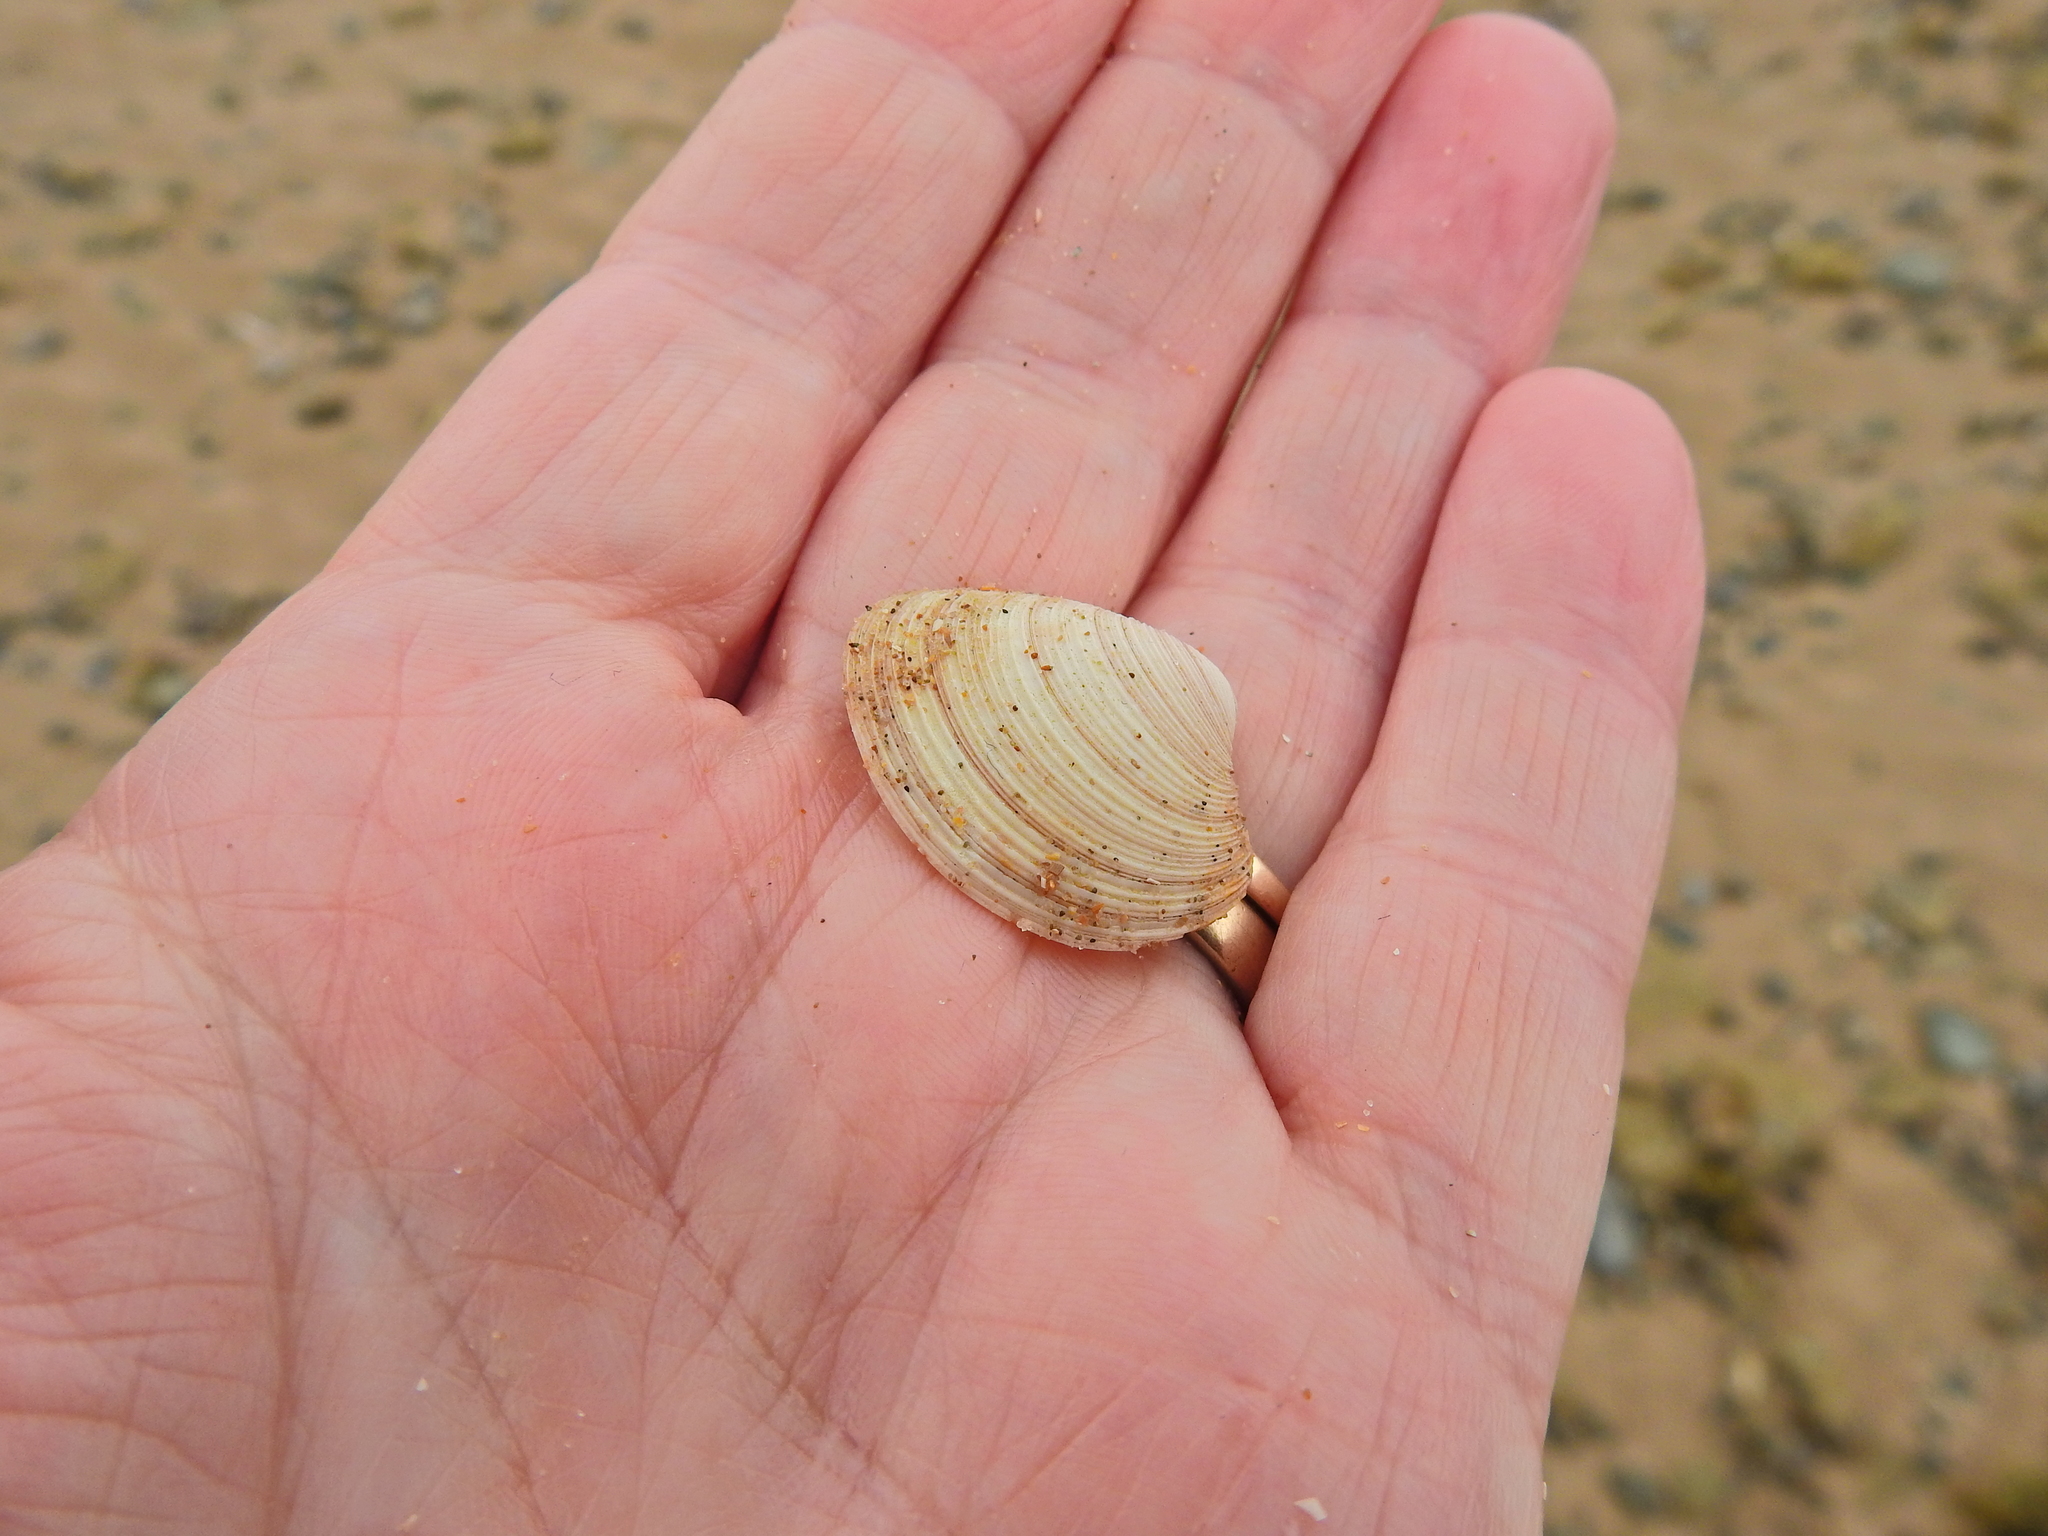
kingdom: Animalia
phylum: Mollusca
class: Bivalvia
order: Venerida
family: Veneridae
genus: Chamelea
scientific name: Chamelea striatula
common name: Striped venus
